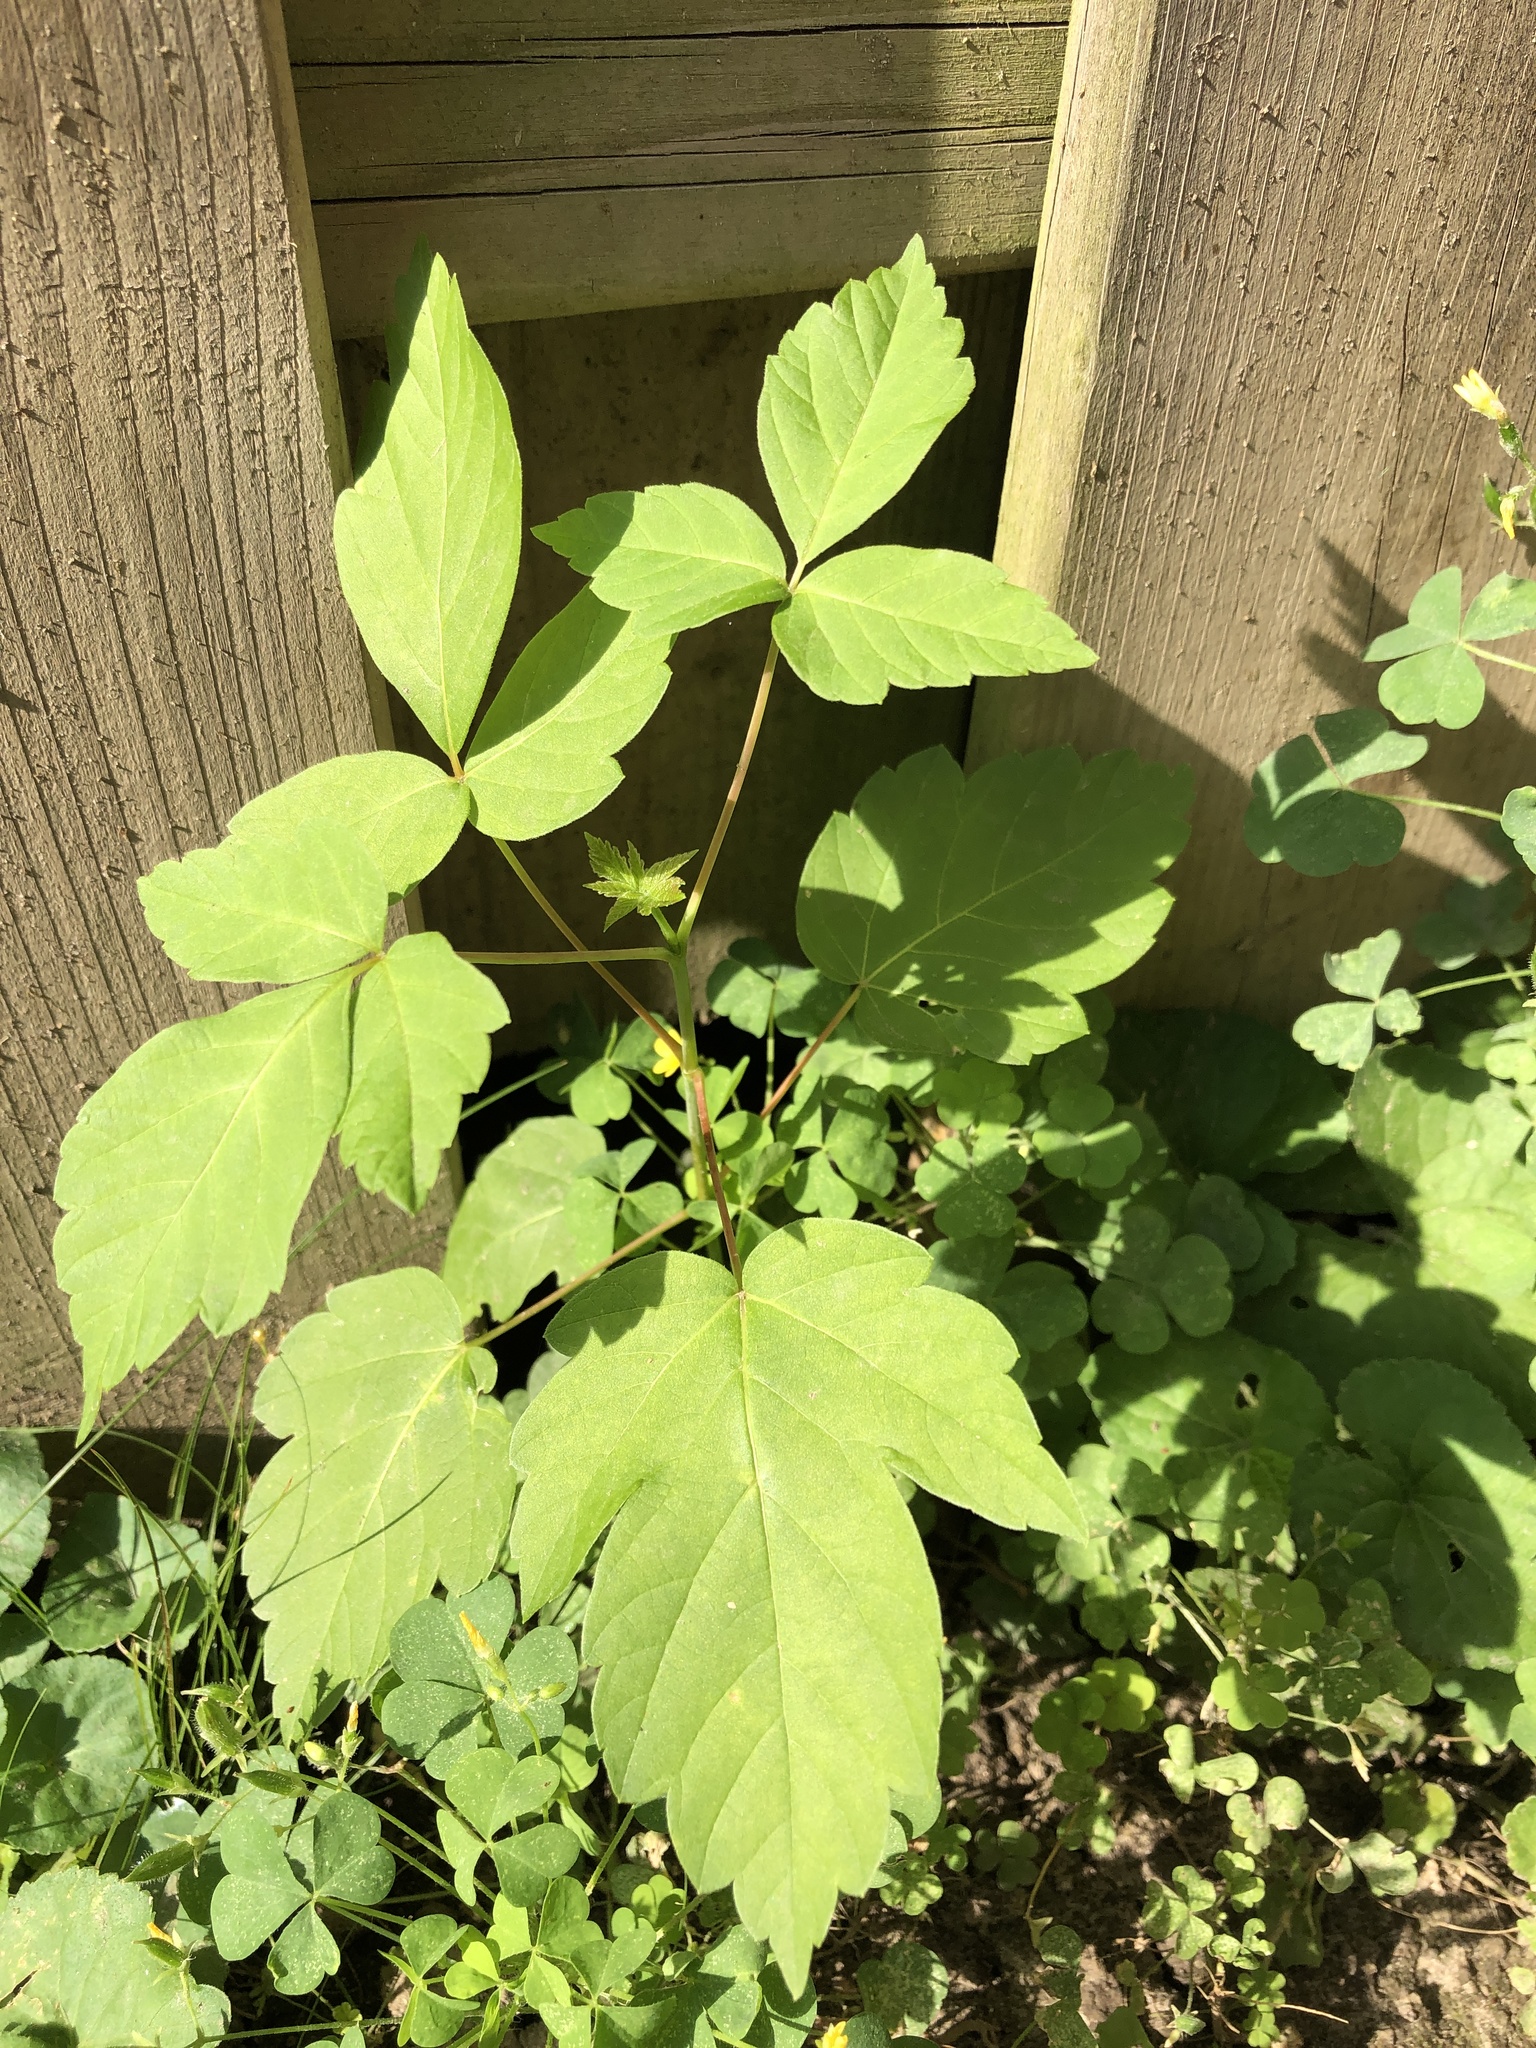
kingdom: Plantae
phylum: Tracheophyta
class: Magnoliopsida
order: Sapindales
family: Sapindaceae
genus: Acer
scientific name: Acer negundo
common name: Ashleaf maple
